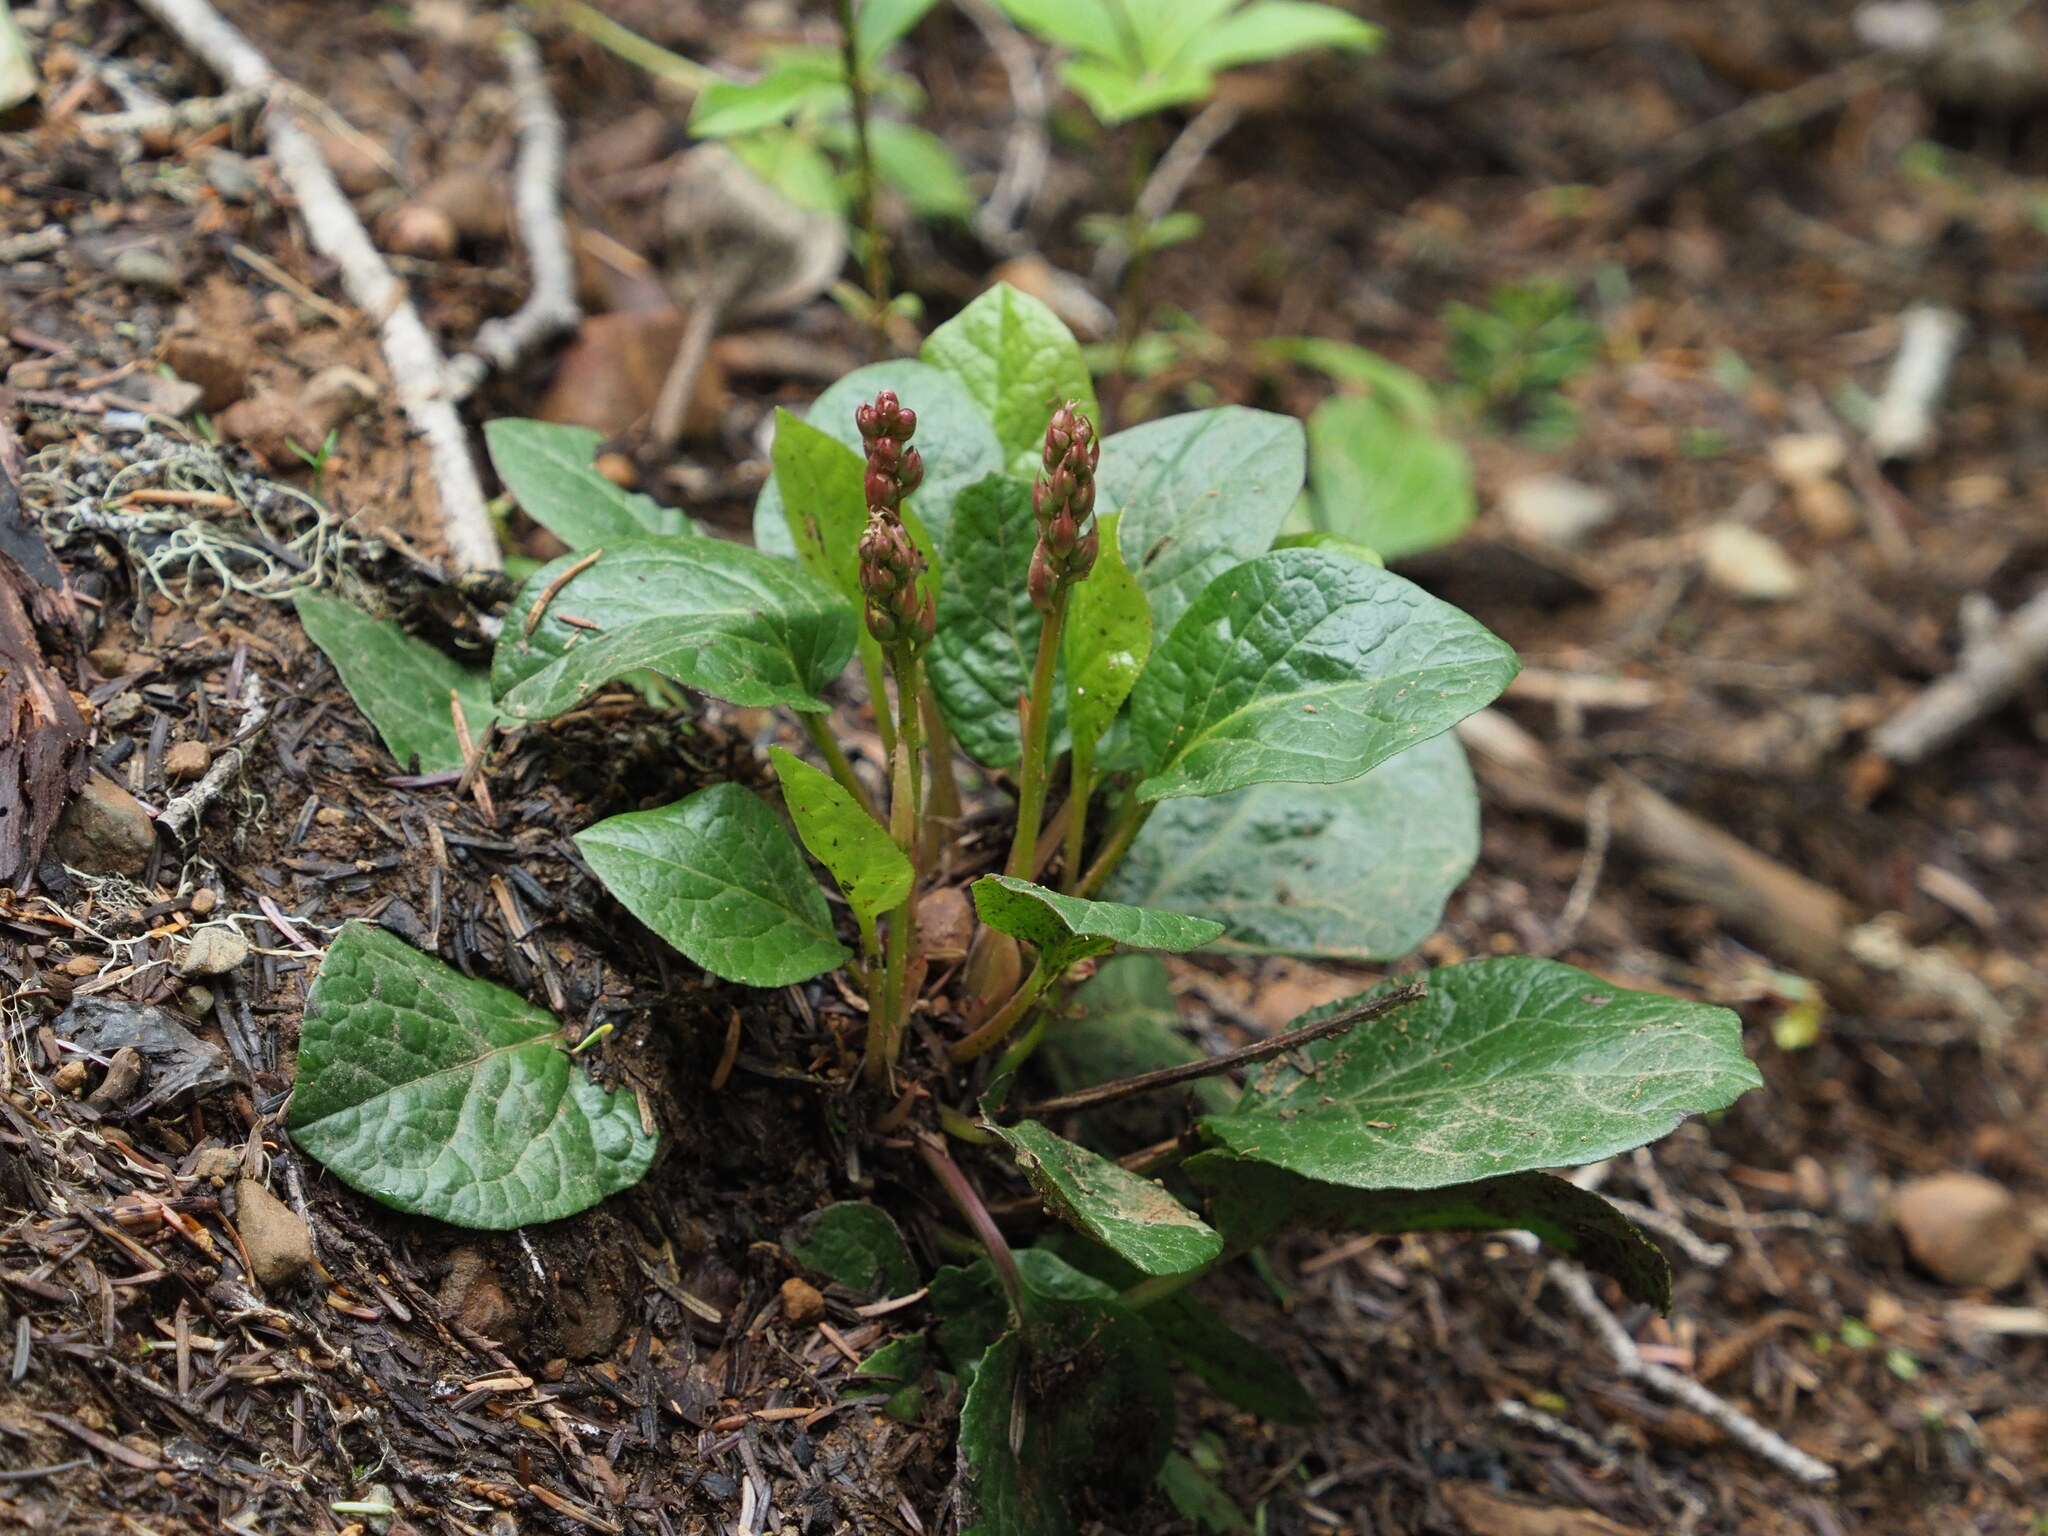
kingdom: Plantae
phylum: Tracheophyta
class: Magnoliopsida
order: Ericales
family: Ericaceae
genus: Pyrola
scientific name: Pyrola asarifolia
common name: Bog wintergreen
